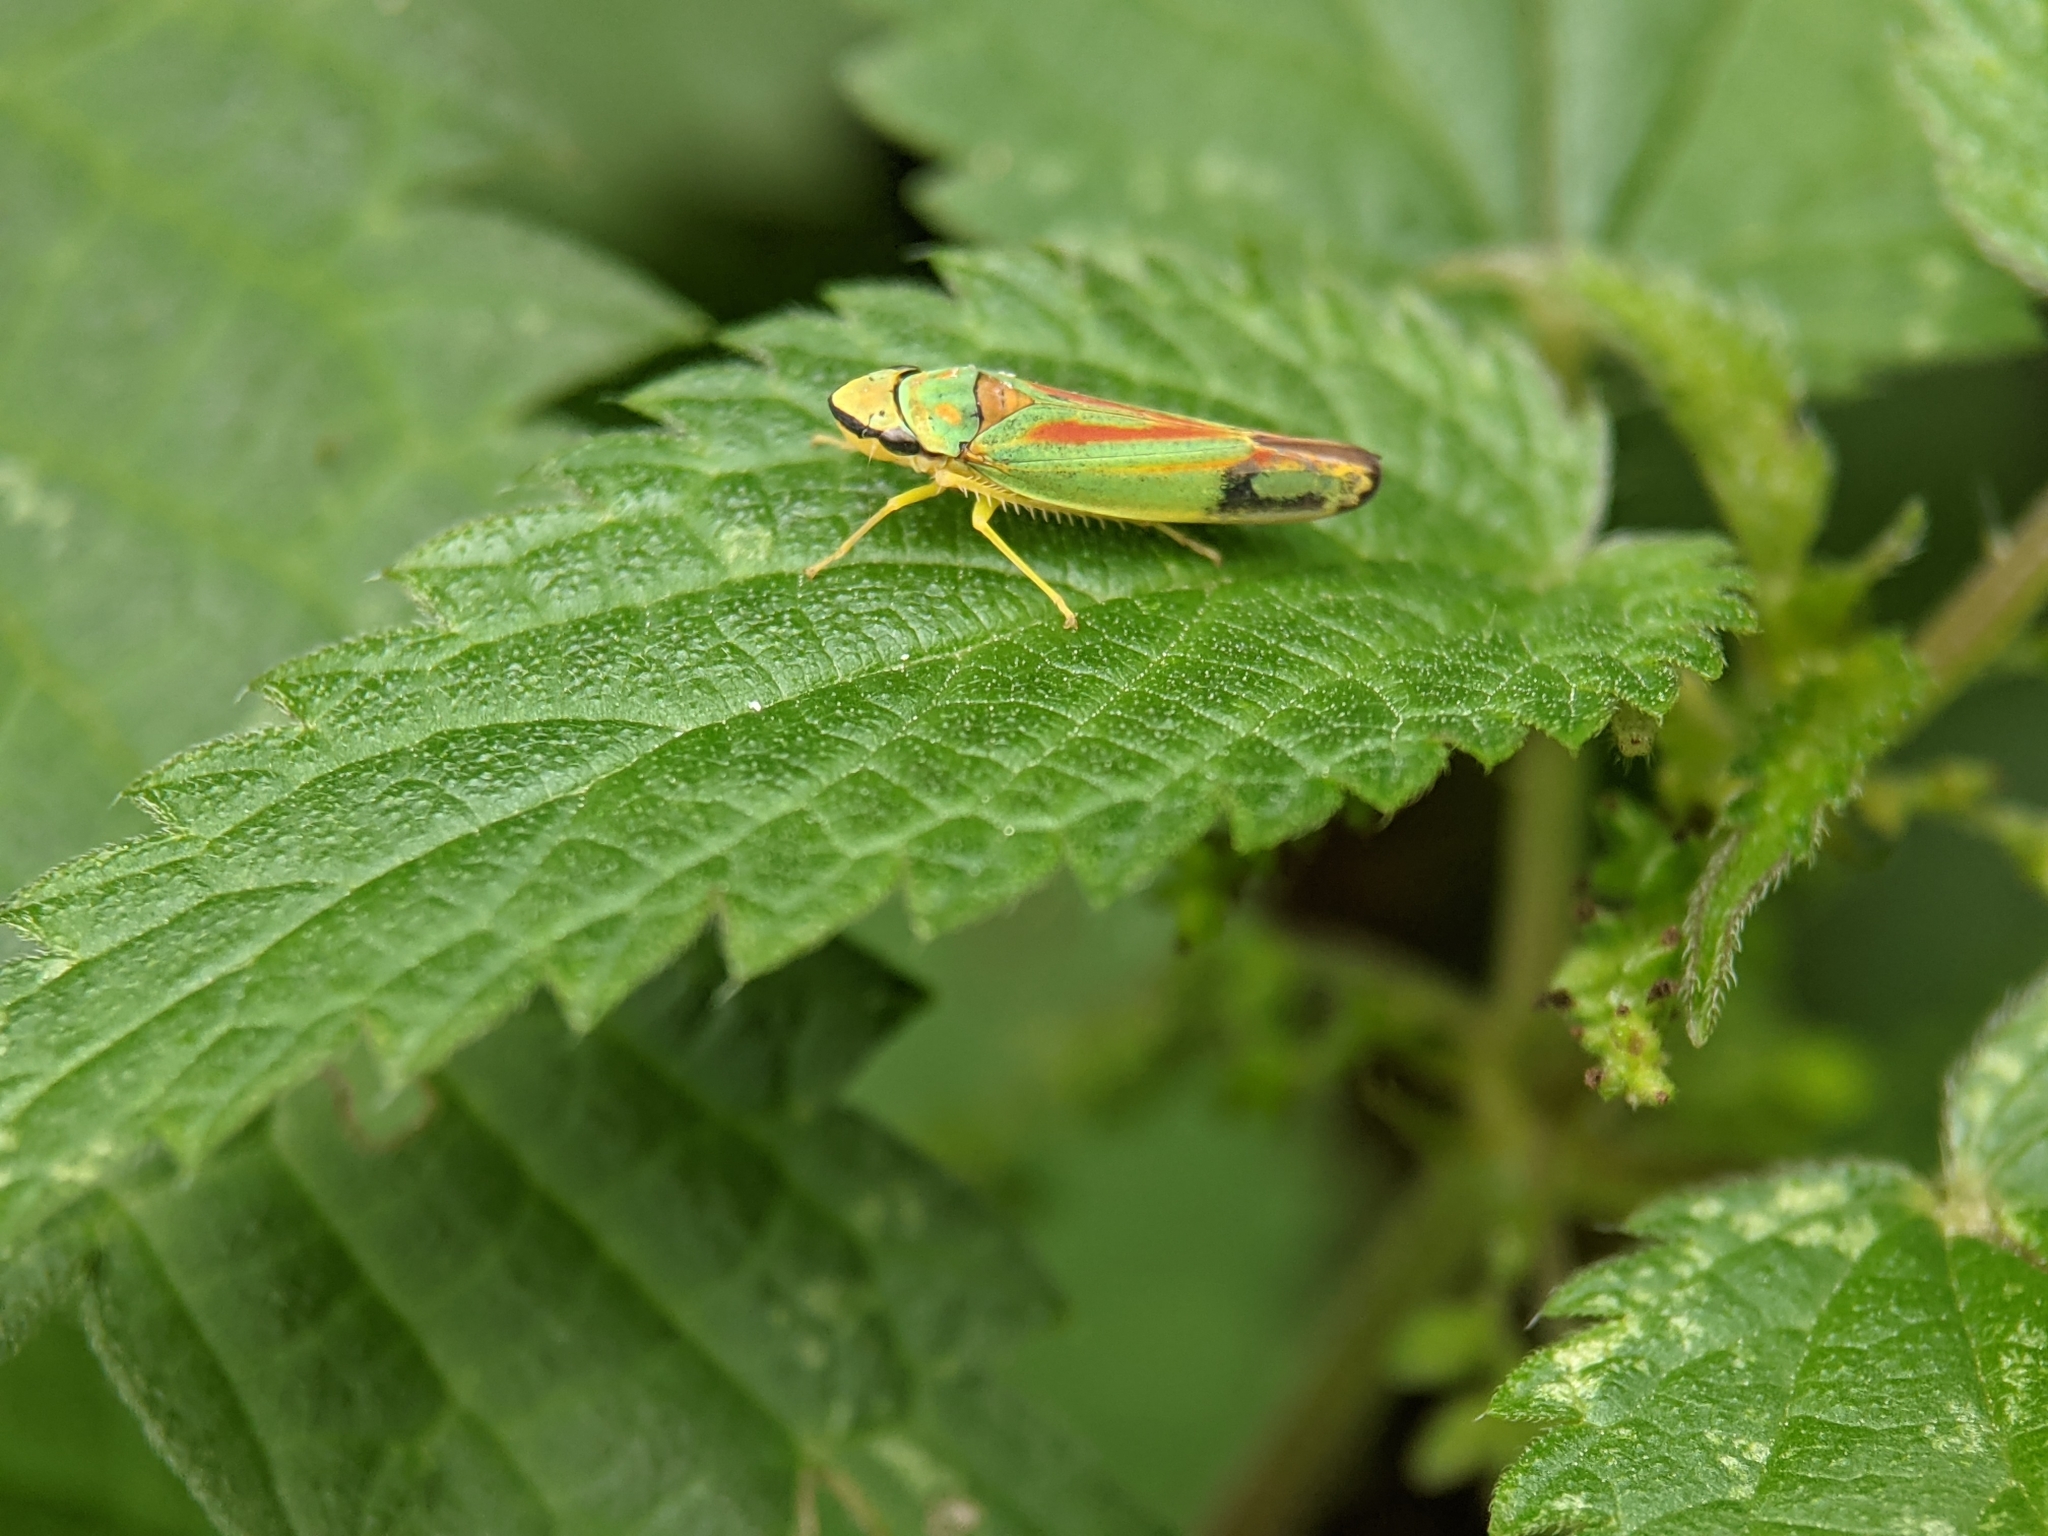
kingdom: Animalia
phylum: Arthropoda
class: Insecta
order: Hemiptera
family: Cicadellidae
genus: Graphocephala
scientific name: Graphocephala fennahi
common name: Rhododendron leafhopper
